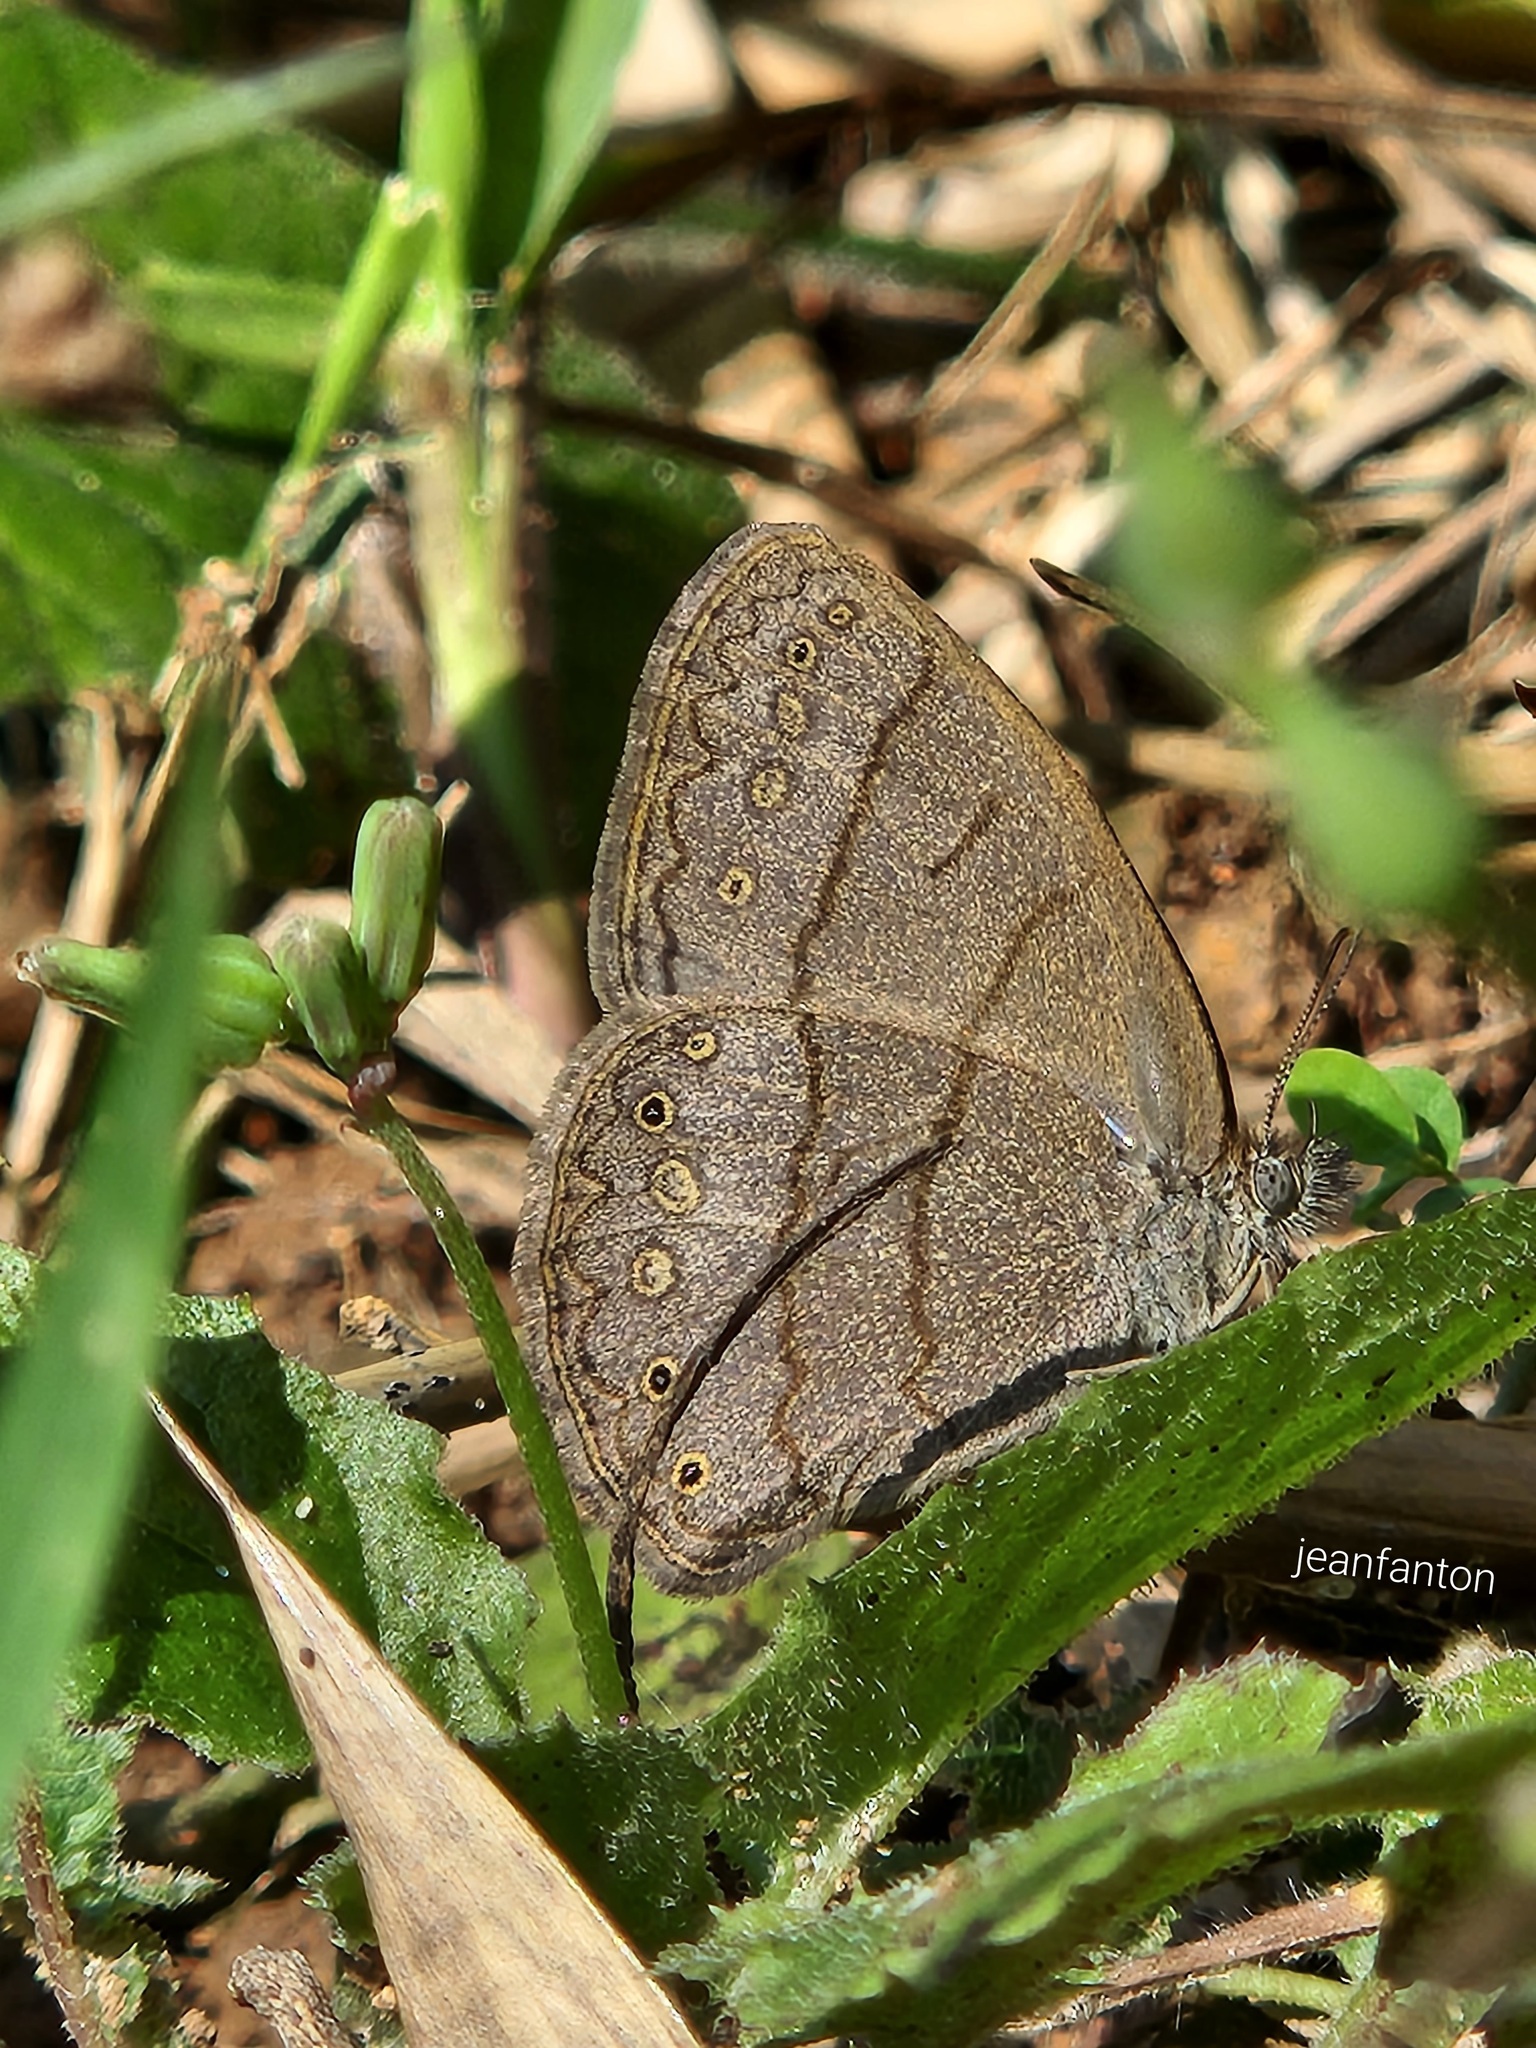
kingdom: Animalia
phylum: Arthropoda
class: Insecta
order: Lepidoptera
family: Nymphalidae
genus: Hermeuptychia
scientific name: Hermeuptychia hermes
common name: Hermes satyr
